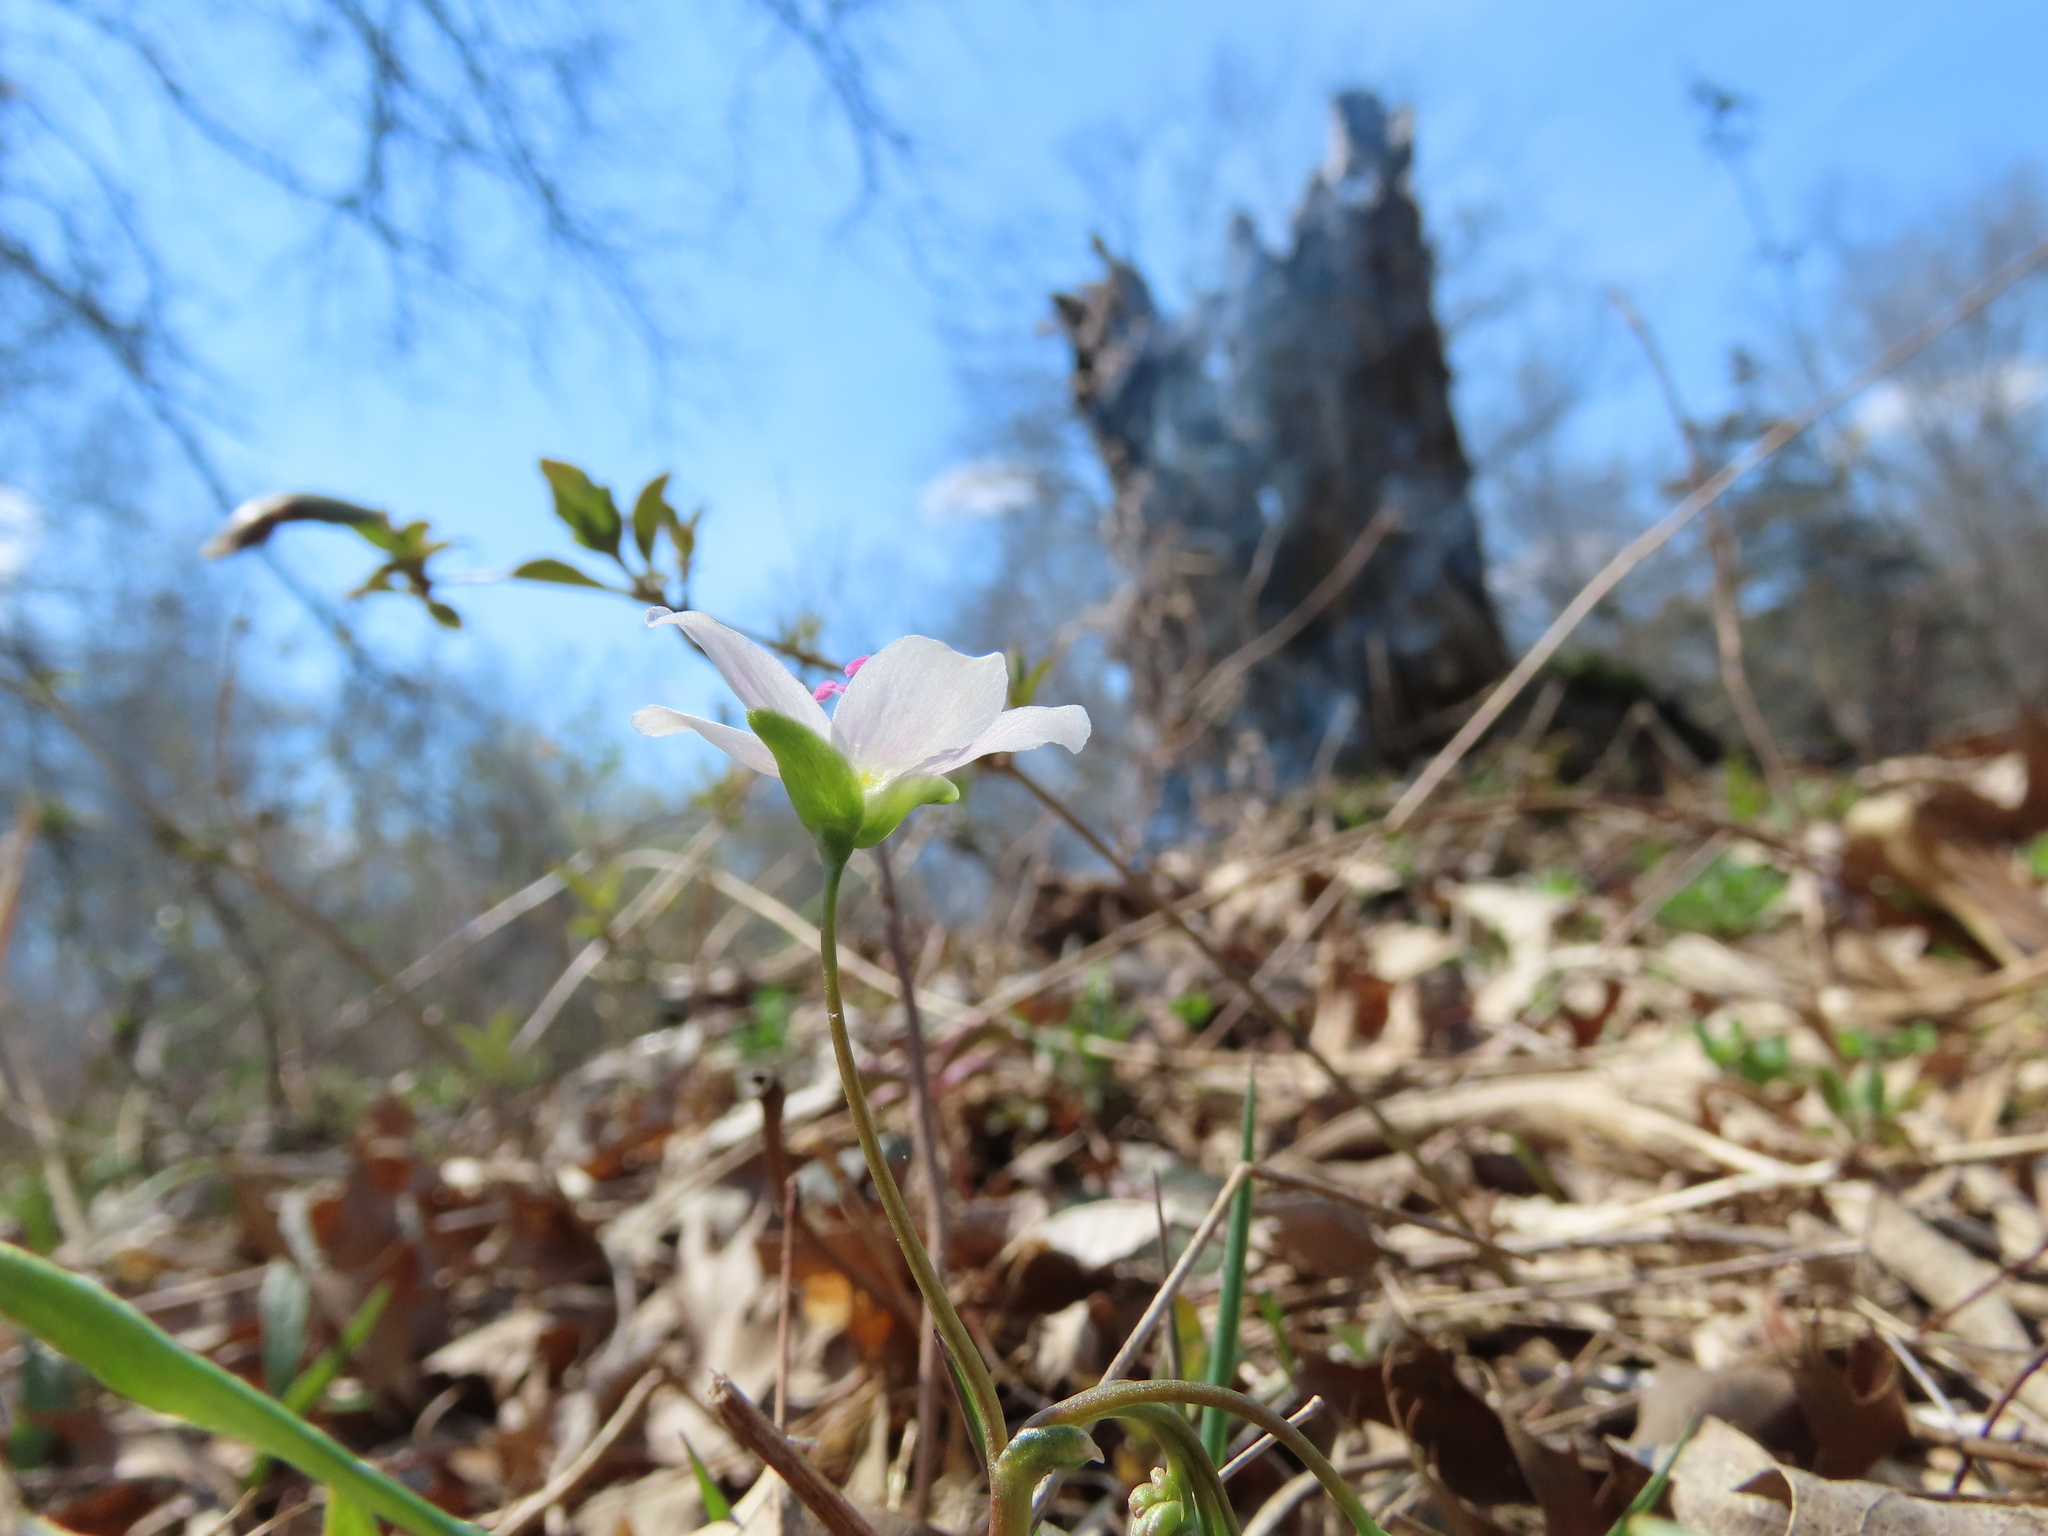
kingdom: Plantae
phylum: Tracheophyta
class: Magnoliopsida
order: Caryophyllales
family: Montiaceae
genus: Claytonia
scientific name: Claytonia virginica
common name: Virginia springbeauty
